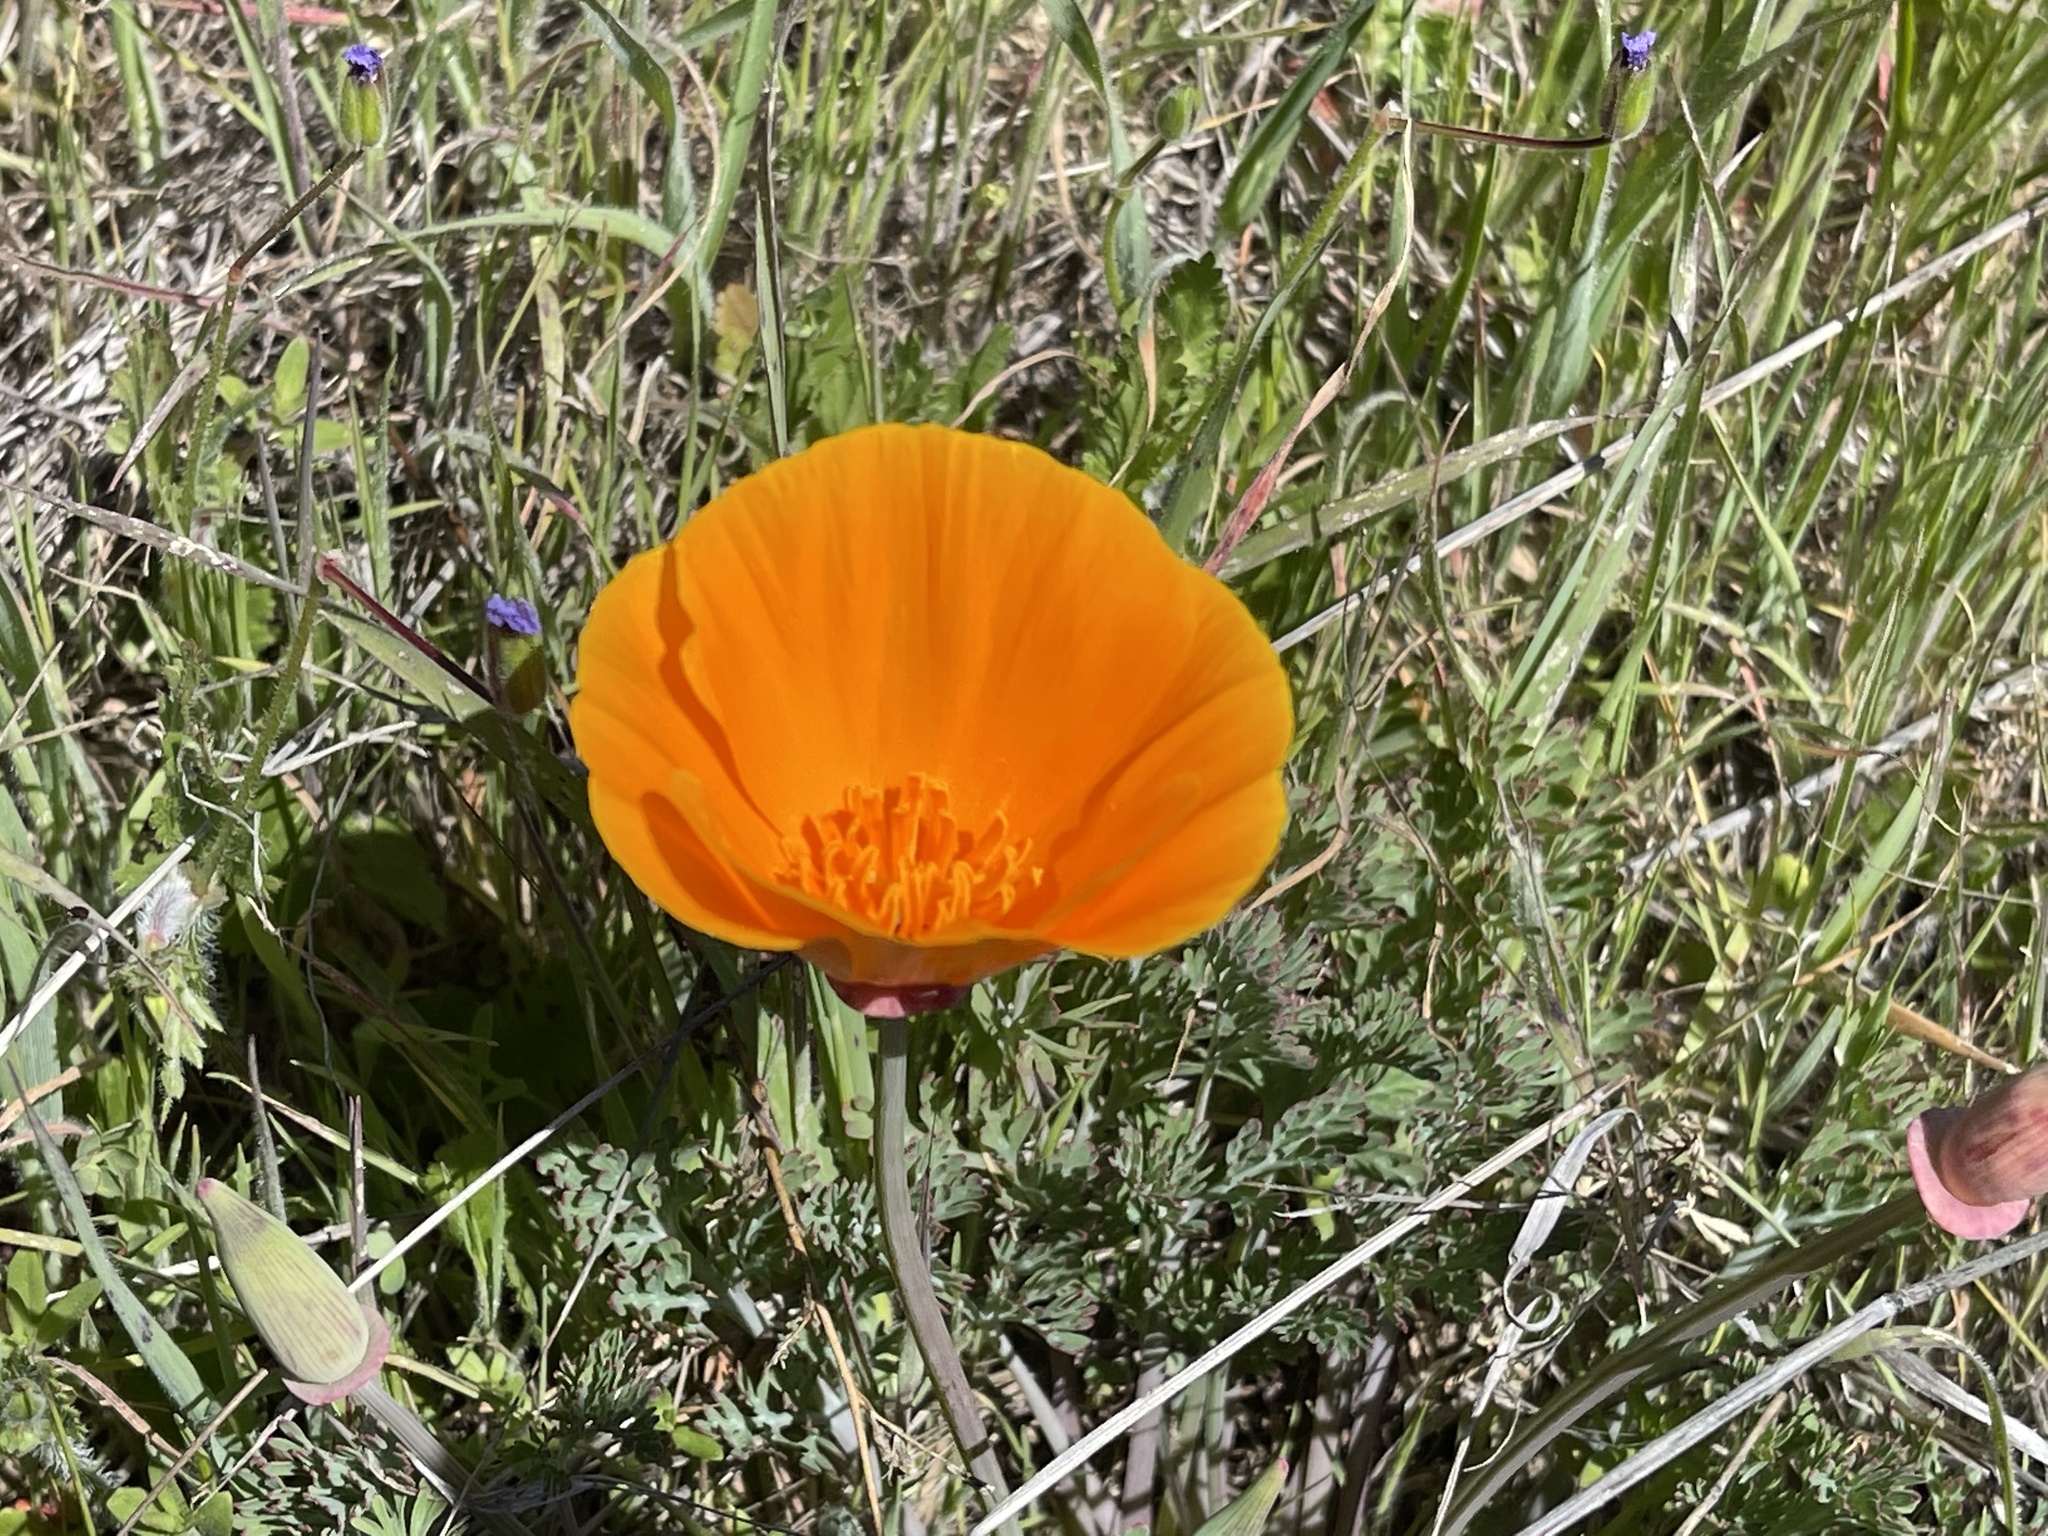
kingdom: Plantae
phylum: Tracheophyta
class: Magnoliopsida
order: Ranunculales
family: Papaveraceae
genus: Eschscholzia
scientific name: Eschscholzia californica
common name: California poppy
